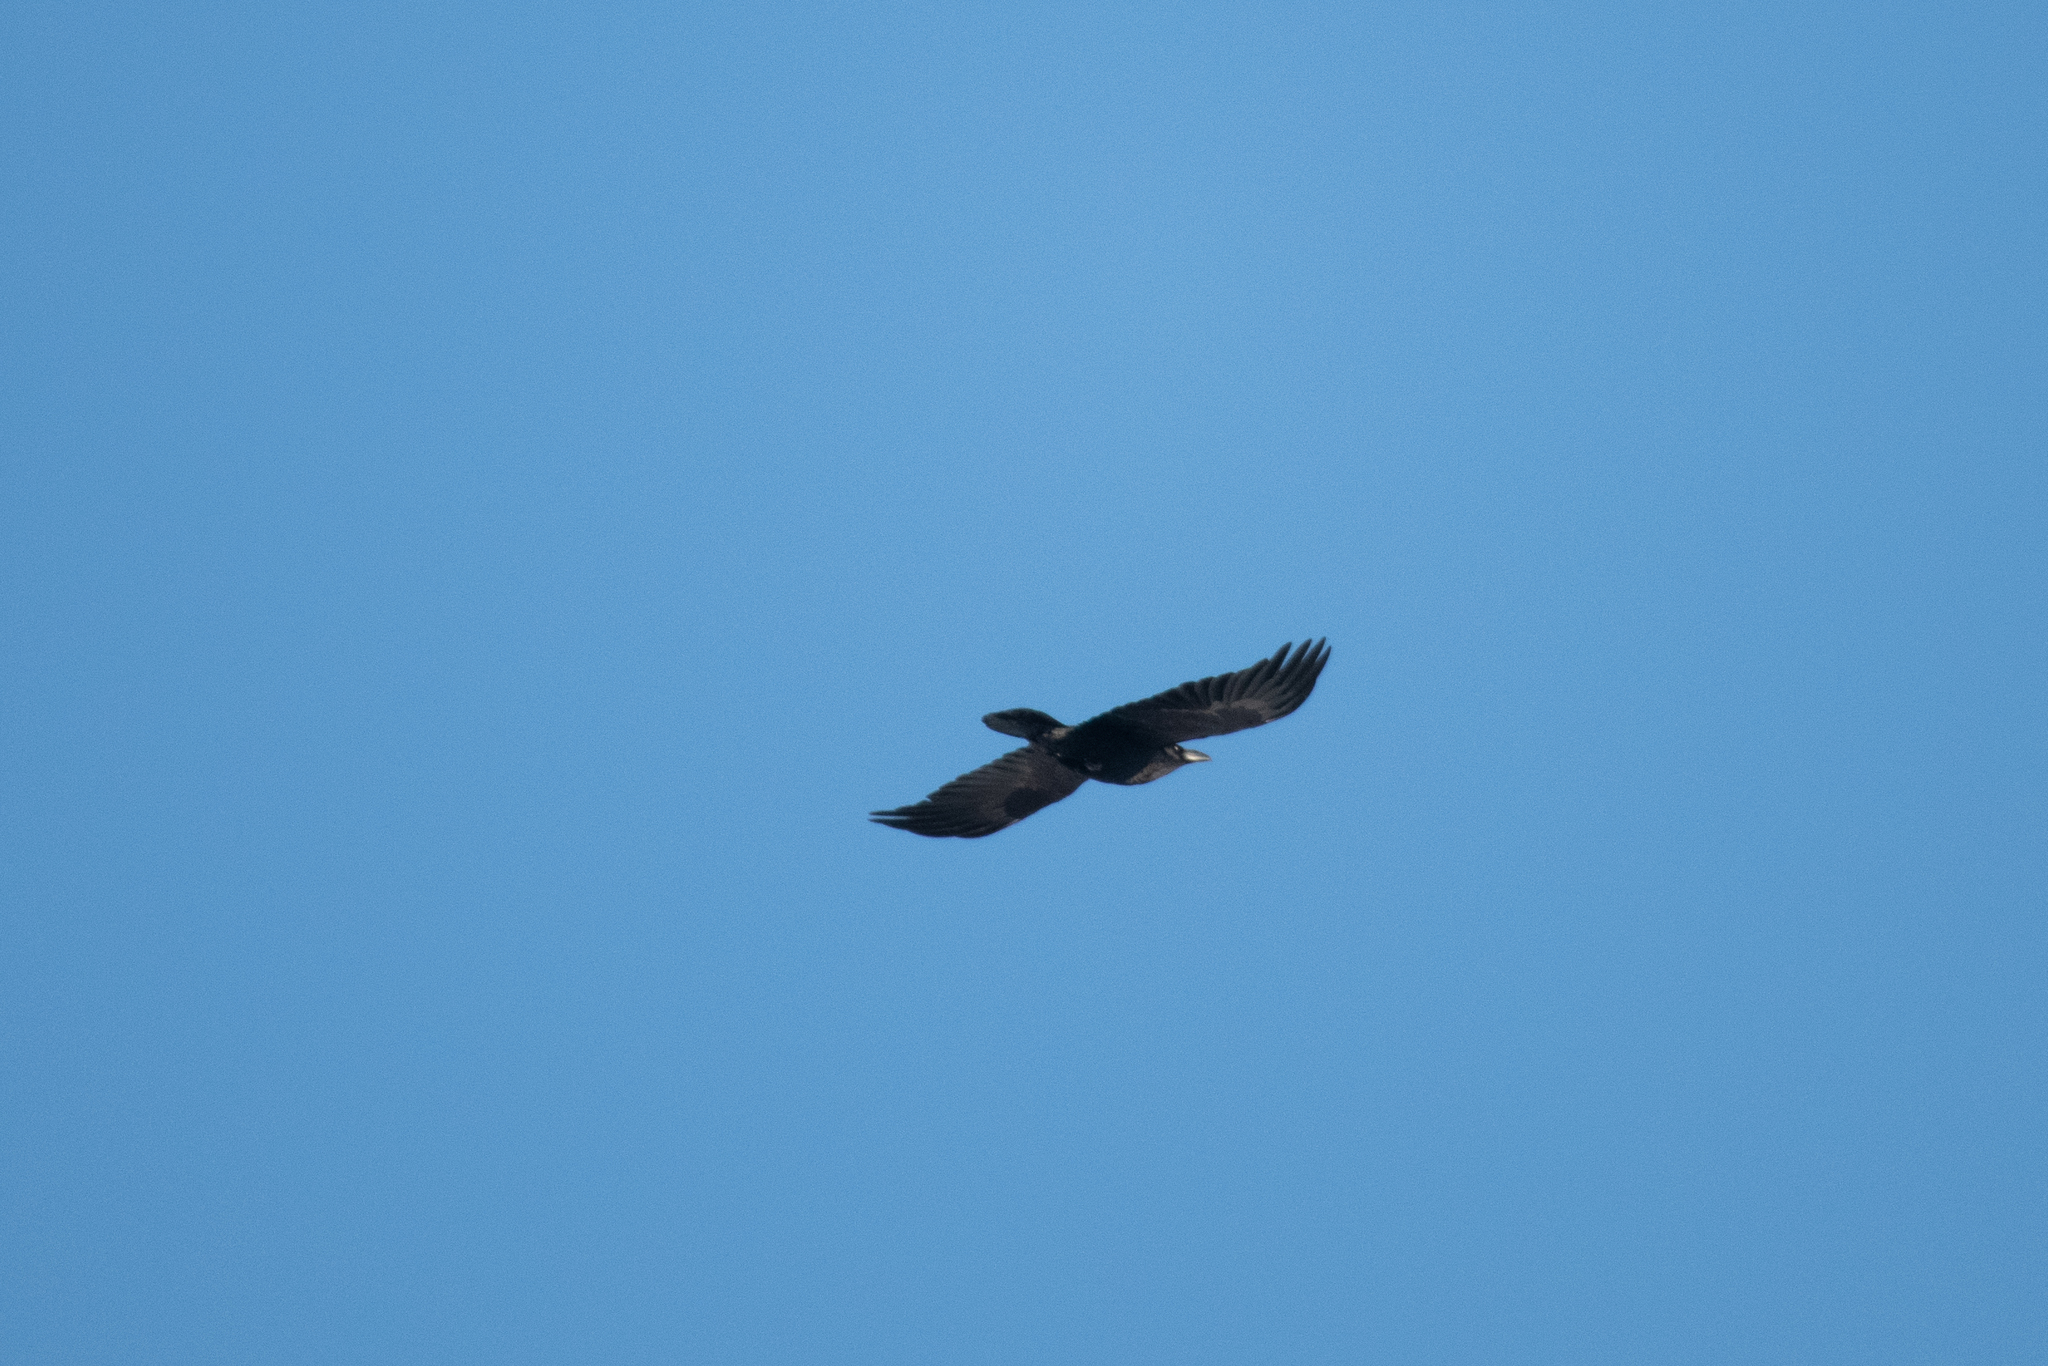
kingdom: Animalia
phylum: Chordata
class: Aves
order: Passeriformes
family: Corvidae
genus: Corvus
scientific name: Corvus corax
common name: Common raven
